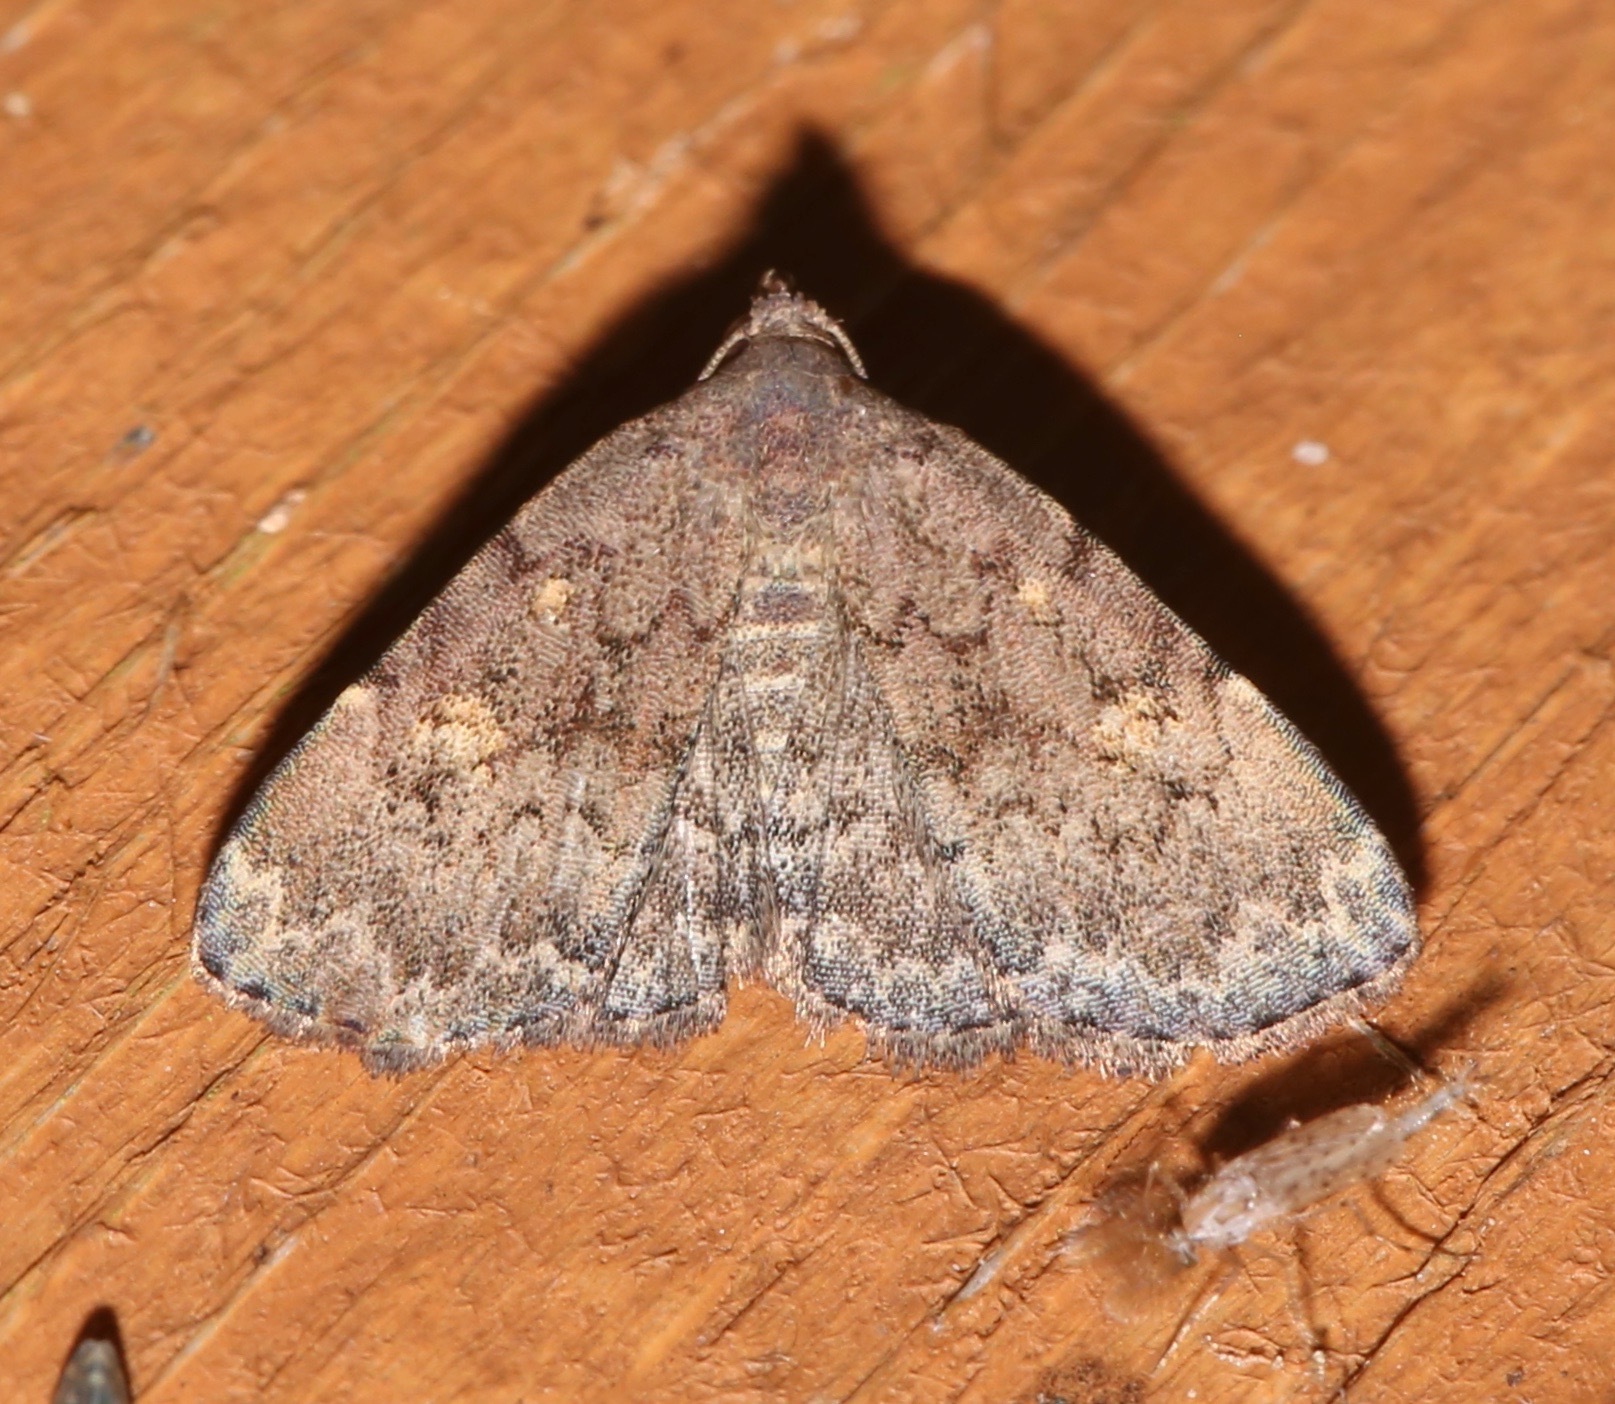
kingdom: Animalia
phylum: Arthropoda
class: Insecta
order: Lepidoptera
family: Erebidae
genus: Idia
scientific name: Idia aemula
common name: Common idia moth
